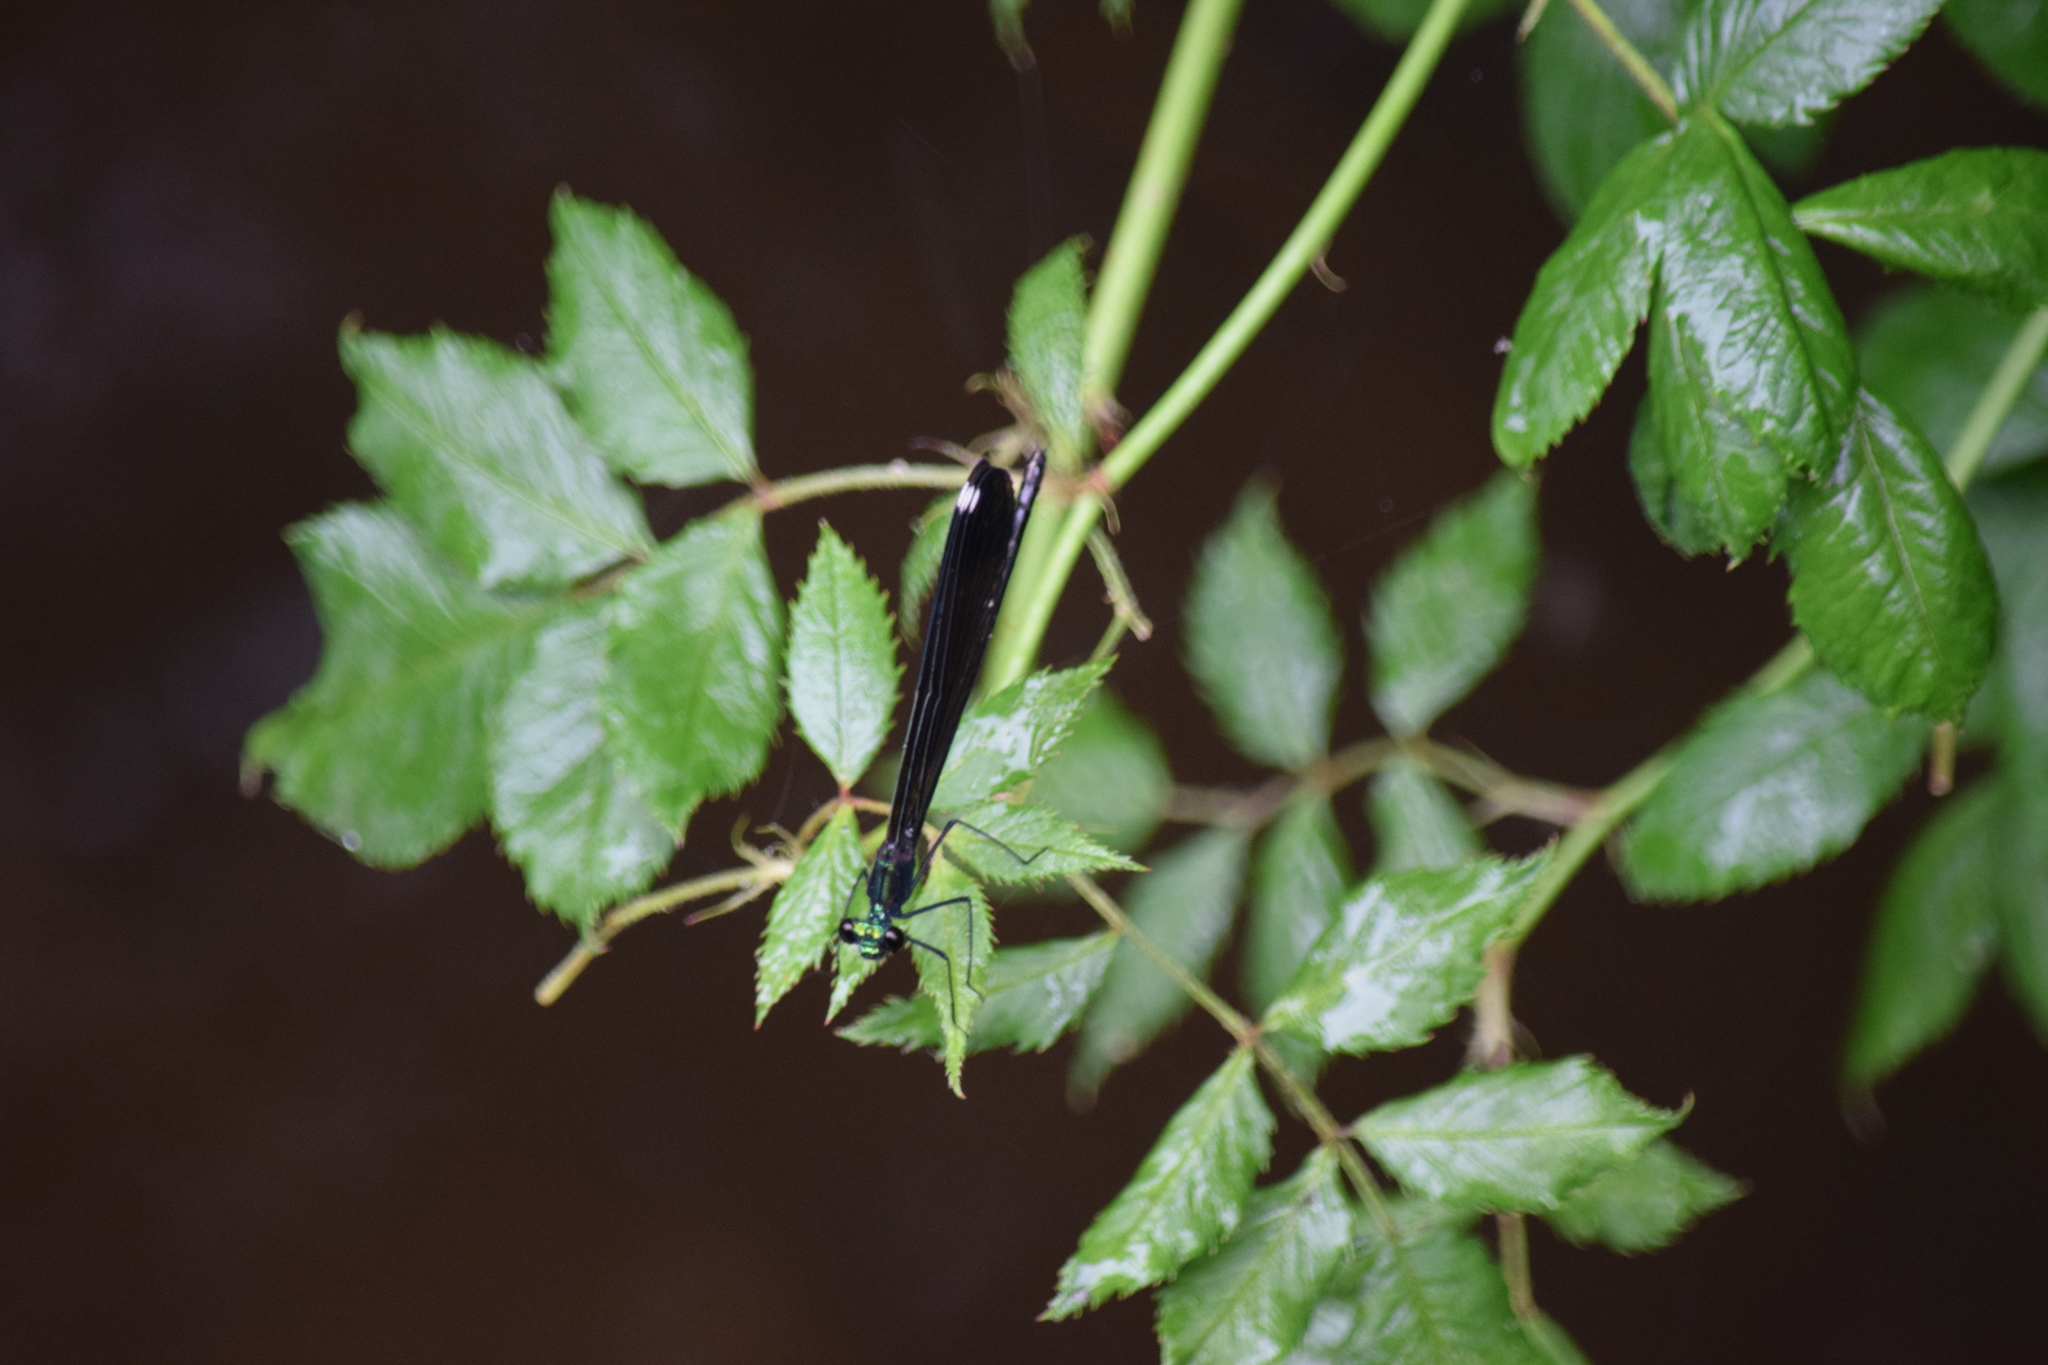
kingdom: Animalia
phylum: Arthropoda
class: Insecta
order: Odonata
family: Calopterygidae
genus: Calopteryx
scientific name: Calopteryx maculata
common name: Ebony jewelwing
